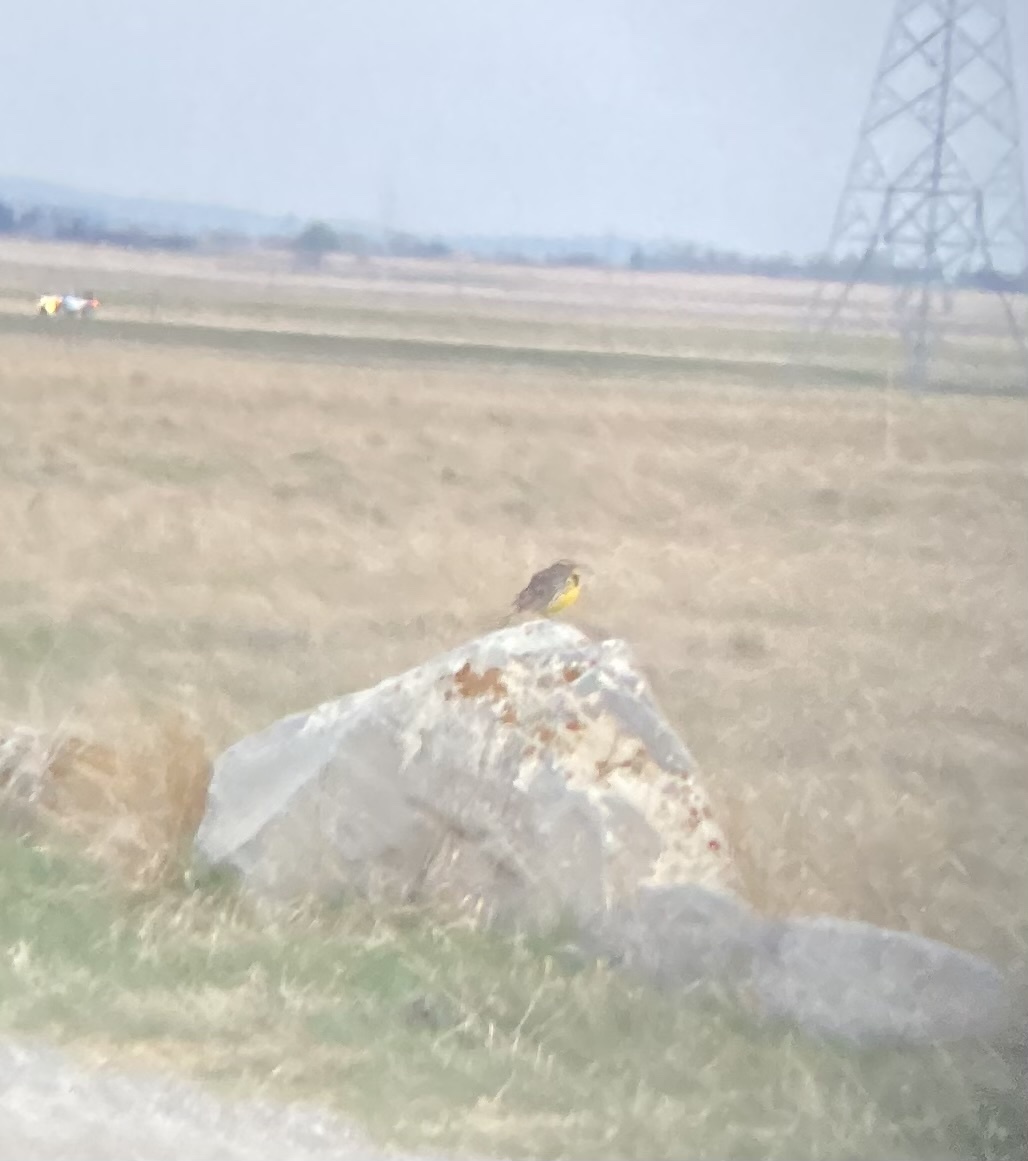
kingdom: Animalia
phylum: Chordata
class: Aves
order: Passeriformes
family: Icteridae
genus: Sturnella
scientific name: Sturnella neglecta
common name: Western meadowlark
